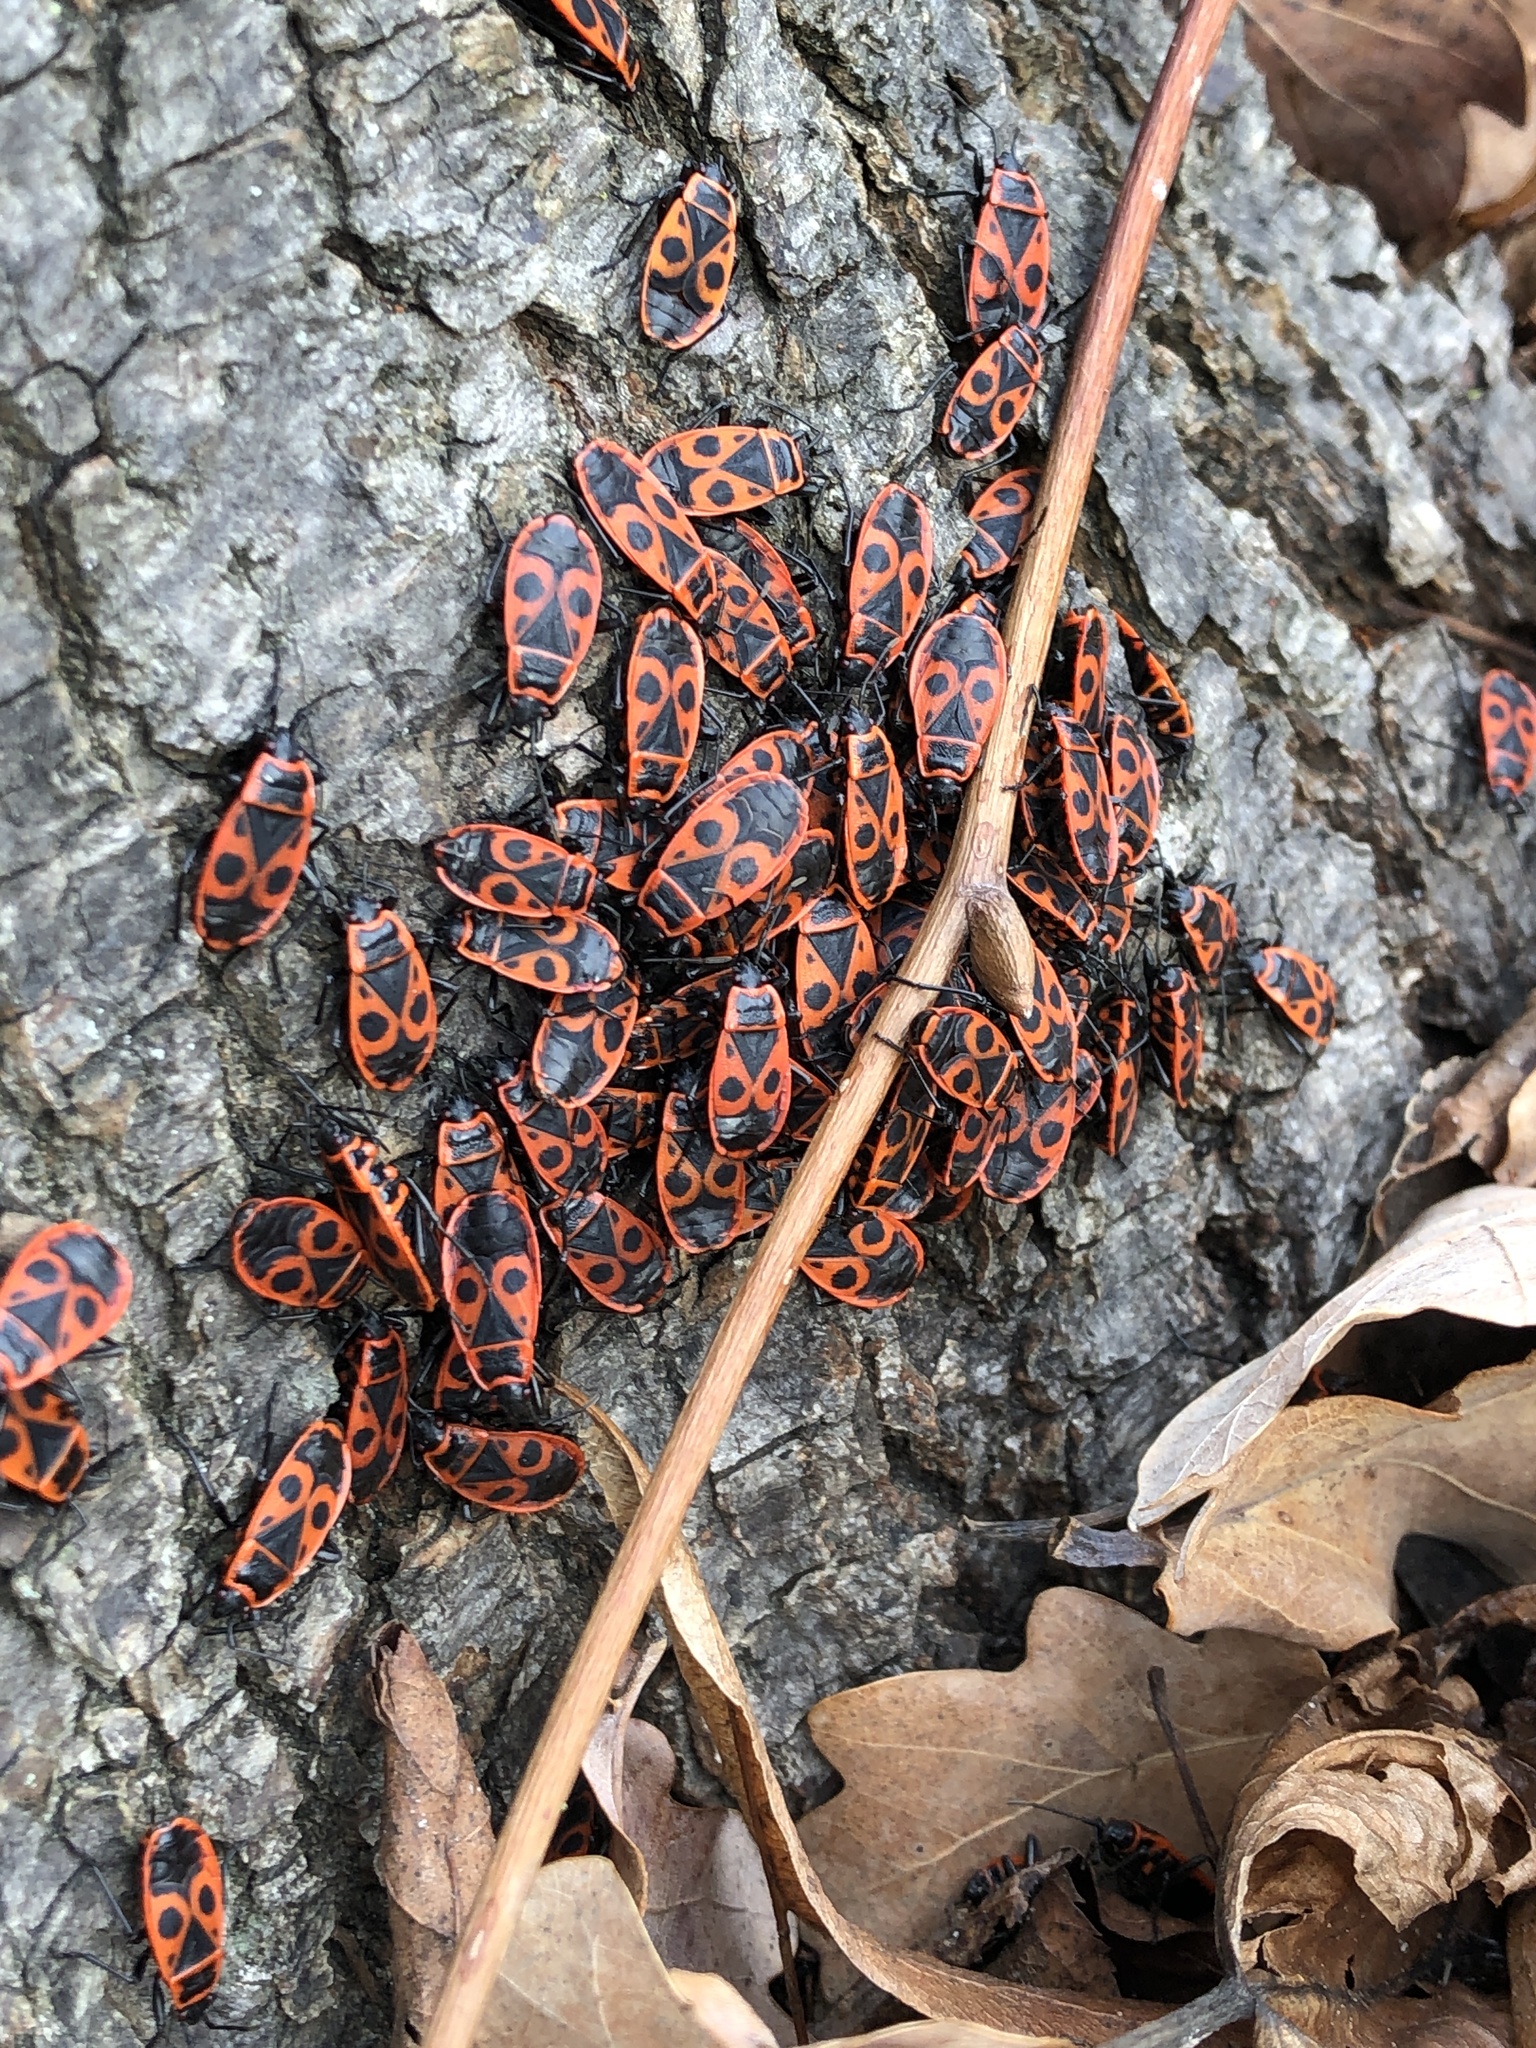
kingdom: Animalia
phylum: Arthropoda
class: Insecta
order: Hemiptera
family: Pyrrhocoridae
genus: Pyrrhocoris
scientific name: Pyrrhocoris apterus
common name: Firebug
